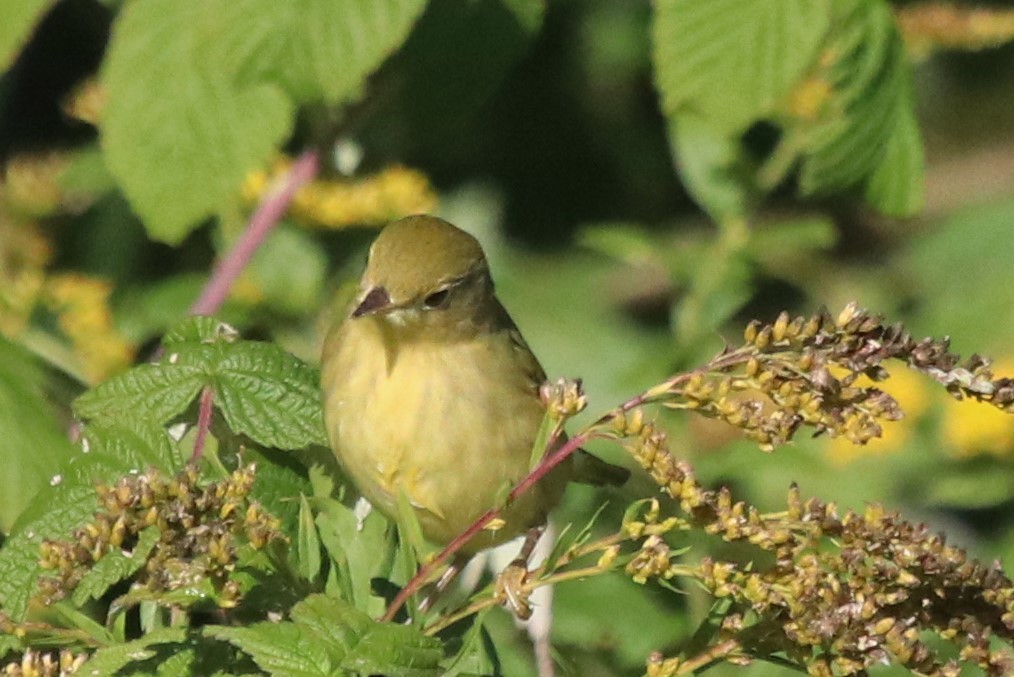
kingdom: Animalia
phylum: Chordata
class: Aves
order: Passeriformes
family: Parulidae
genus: Setophaga
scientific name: Setophaga petechia
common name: Yellow warbler
